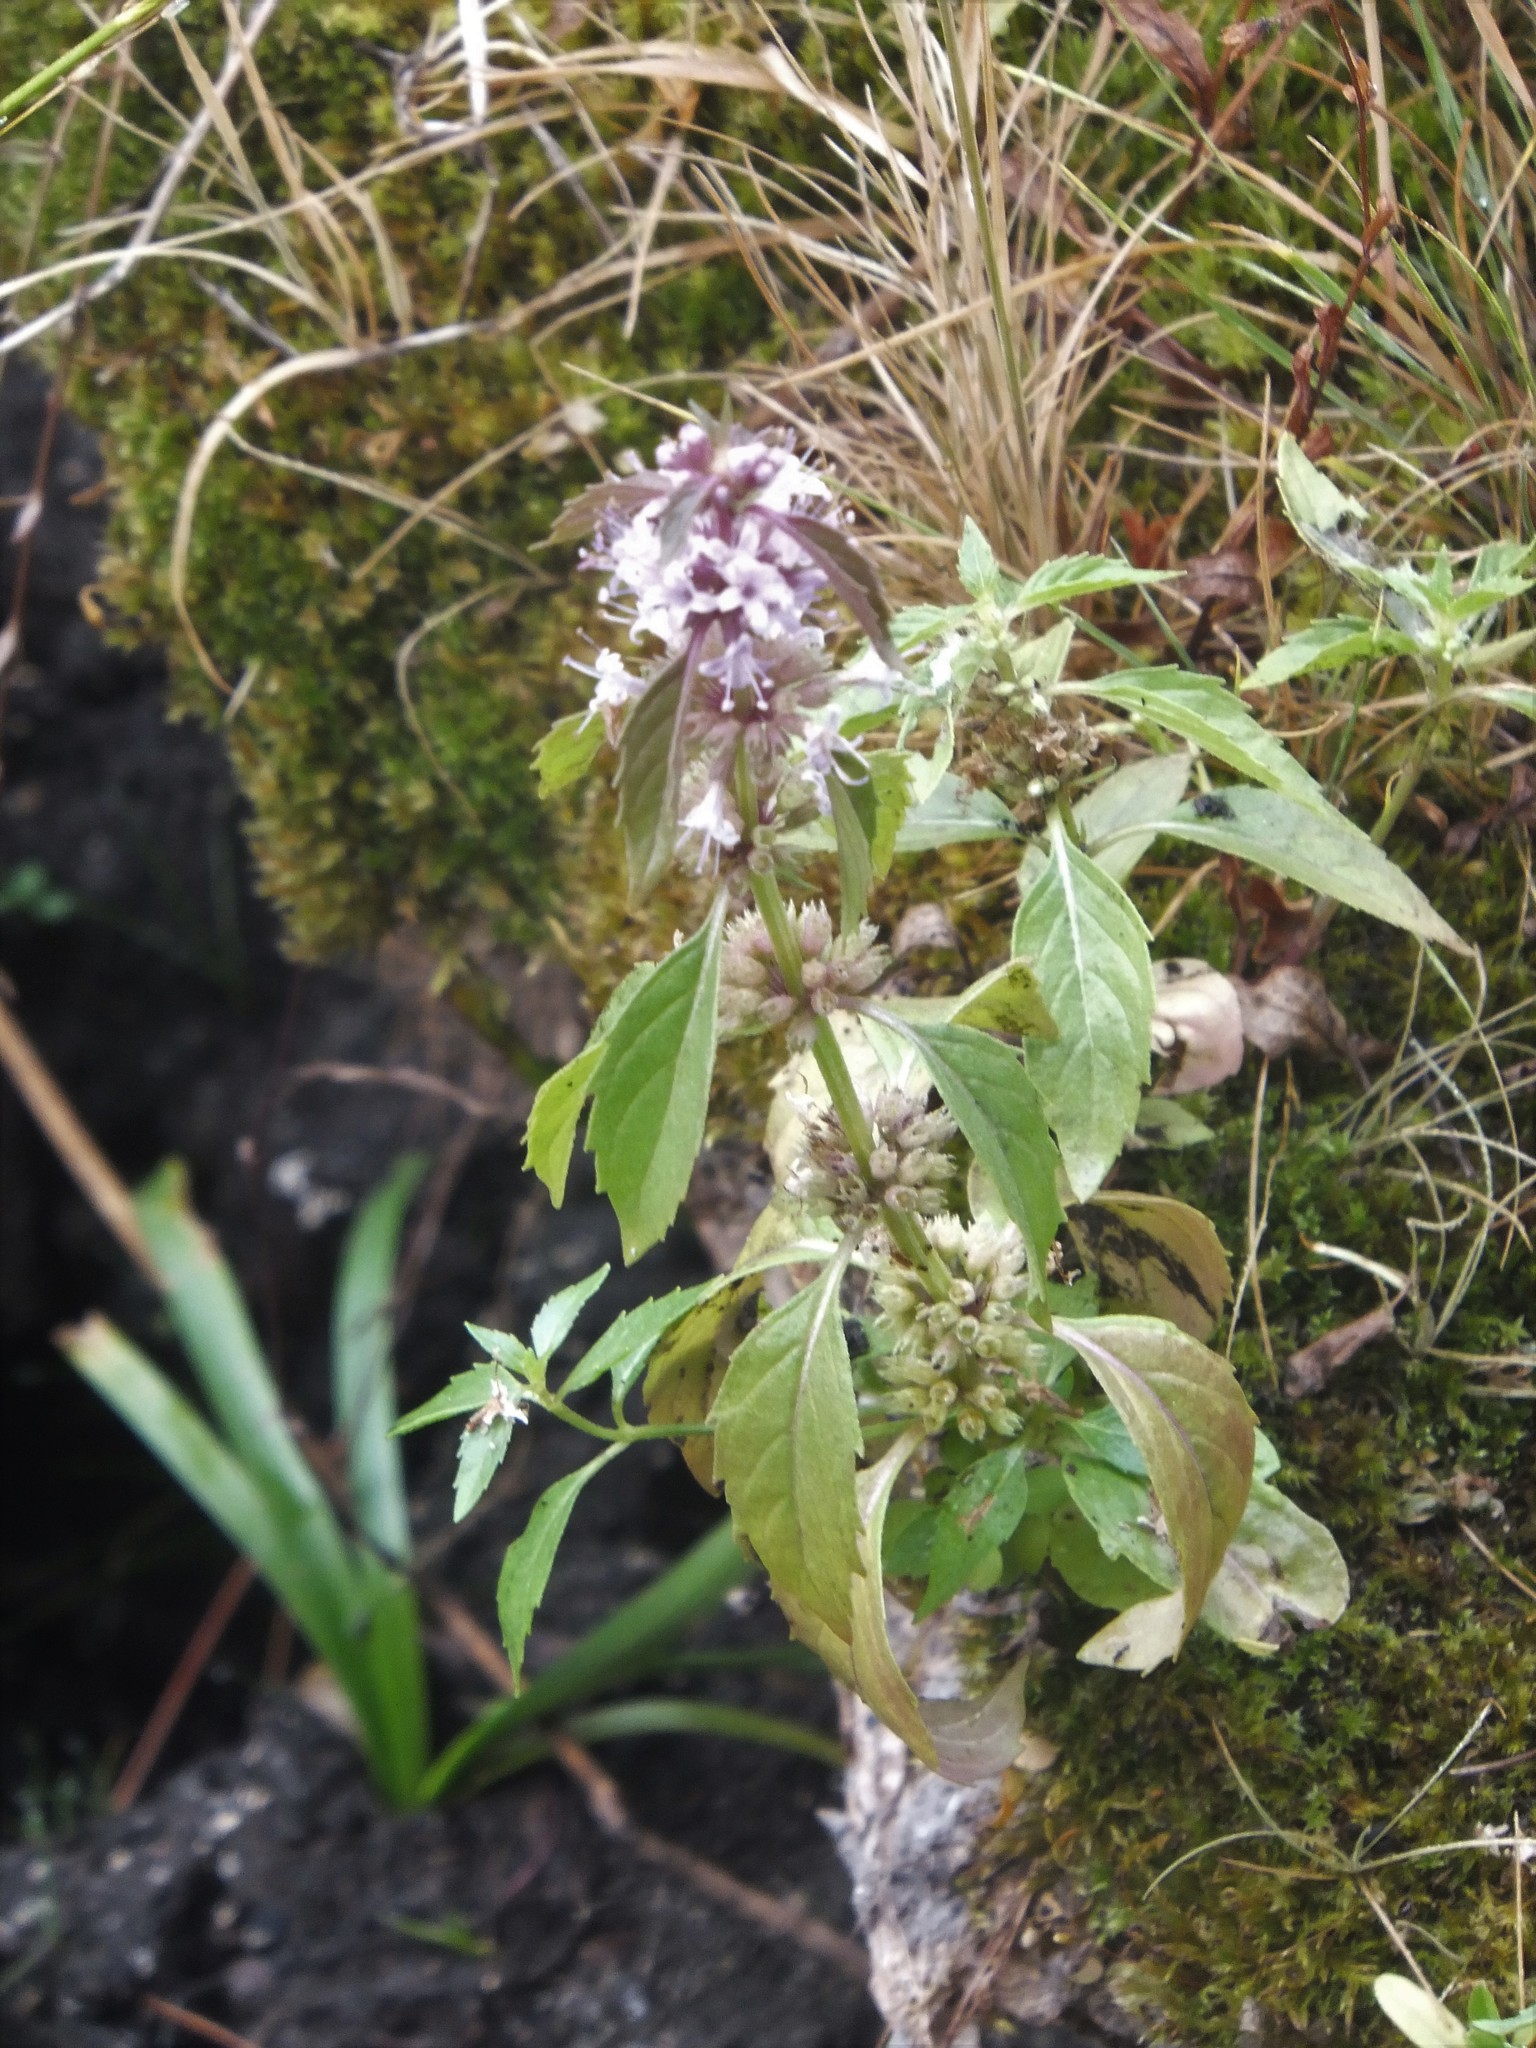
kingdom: Plantae
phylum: Tracheophyta
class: Magnoliopsida
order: Lamiales
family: Lamiaceae
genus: Mentha
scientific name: Mentha canadensis
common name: American corn mint
